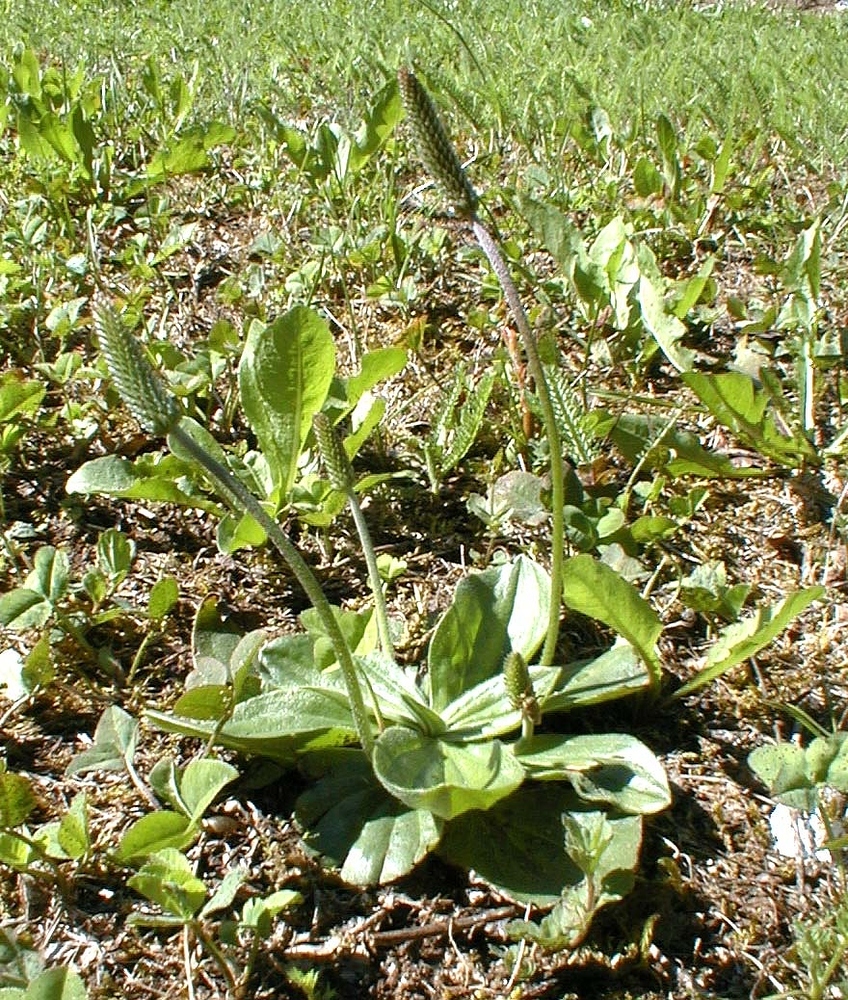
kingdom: Plantae
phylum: Tracheophyta
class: Magnoliopsida
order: Lamiales
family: Plantaginaceae
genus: Plantago
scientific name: Plantago media
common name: Hoary plantain
